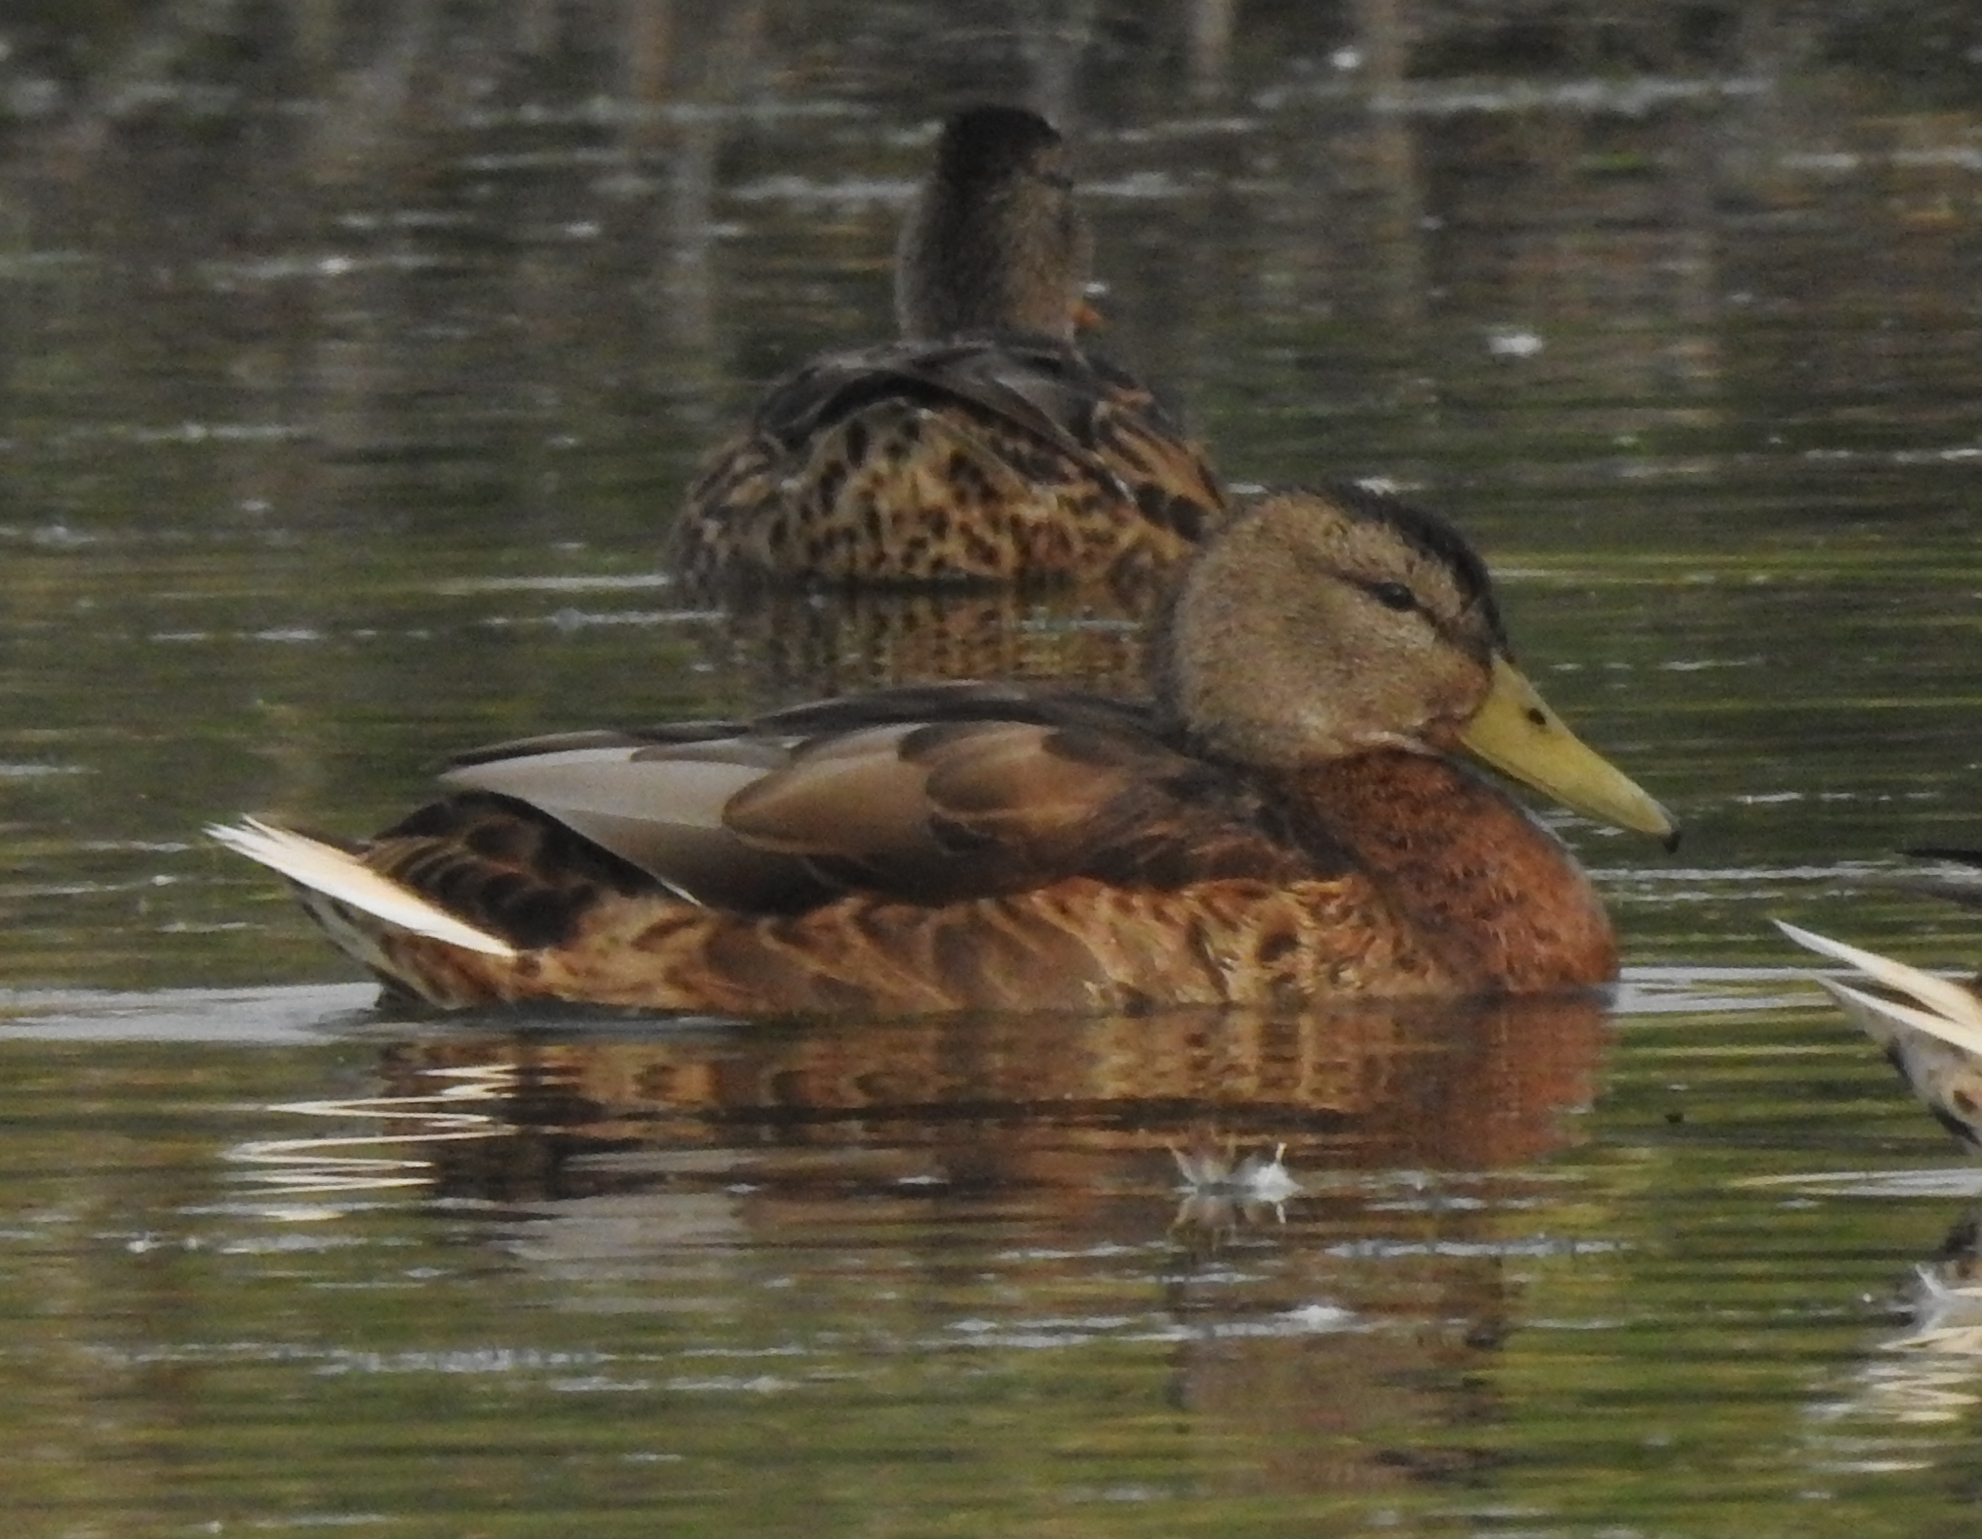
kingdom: Animalia
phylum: Chordata
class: Aves
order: Anseriformes
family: Anatidae
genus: Anas
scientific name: Anas platyrhynchos
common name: Mallard
